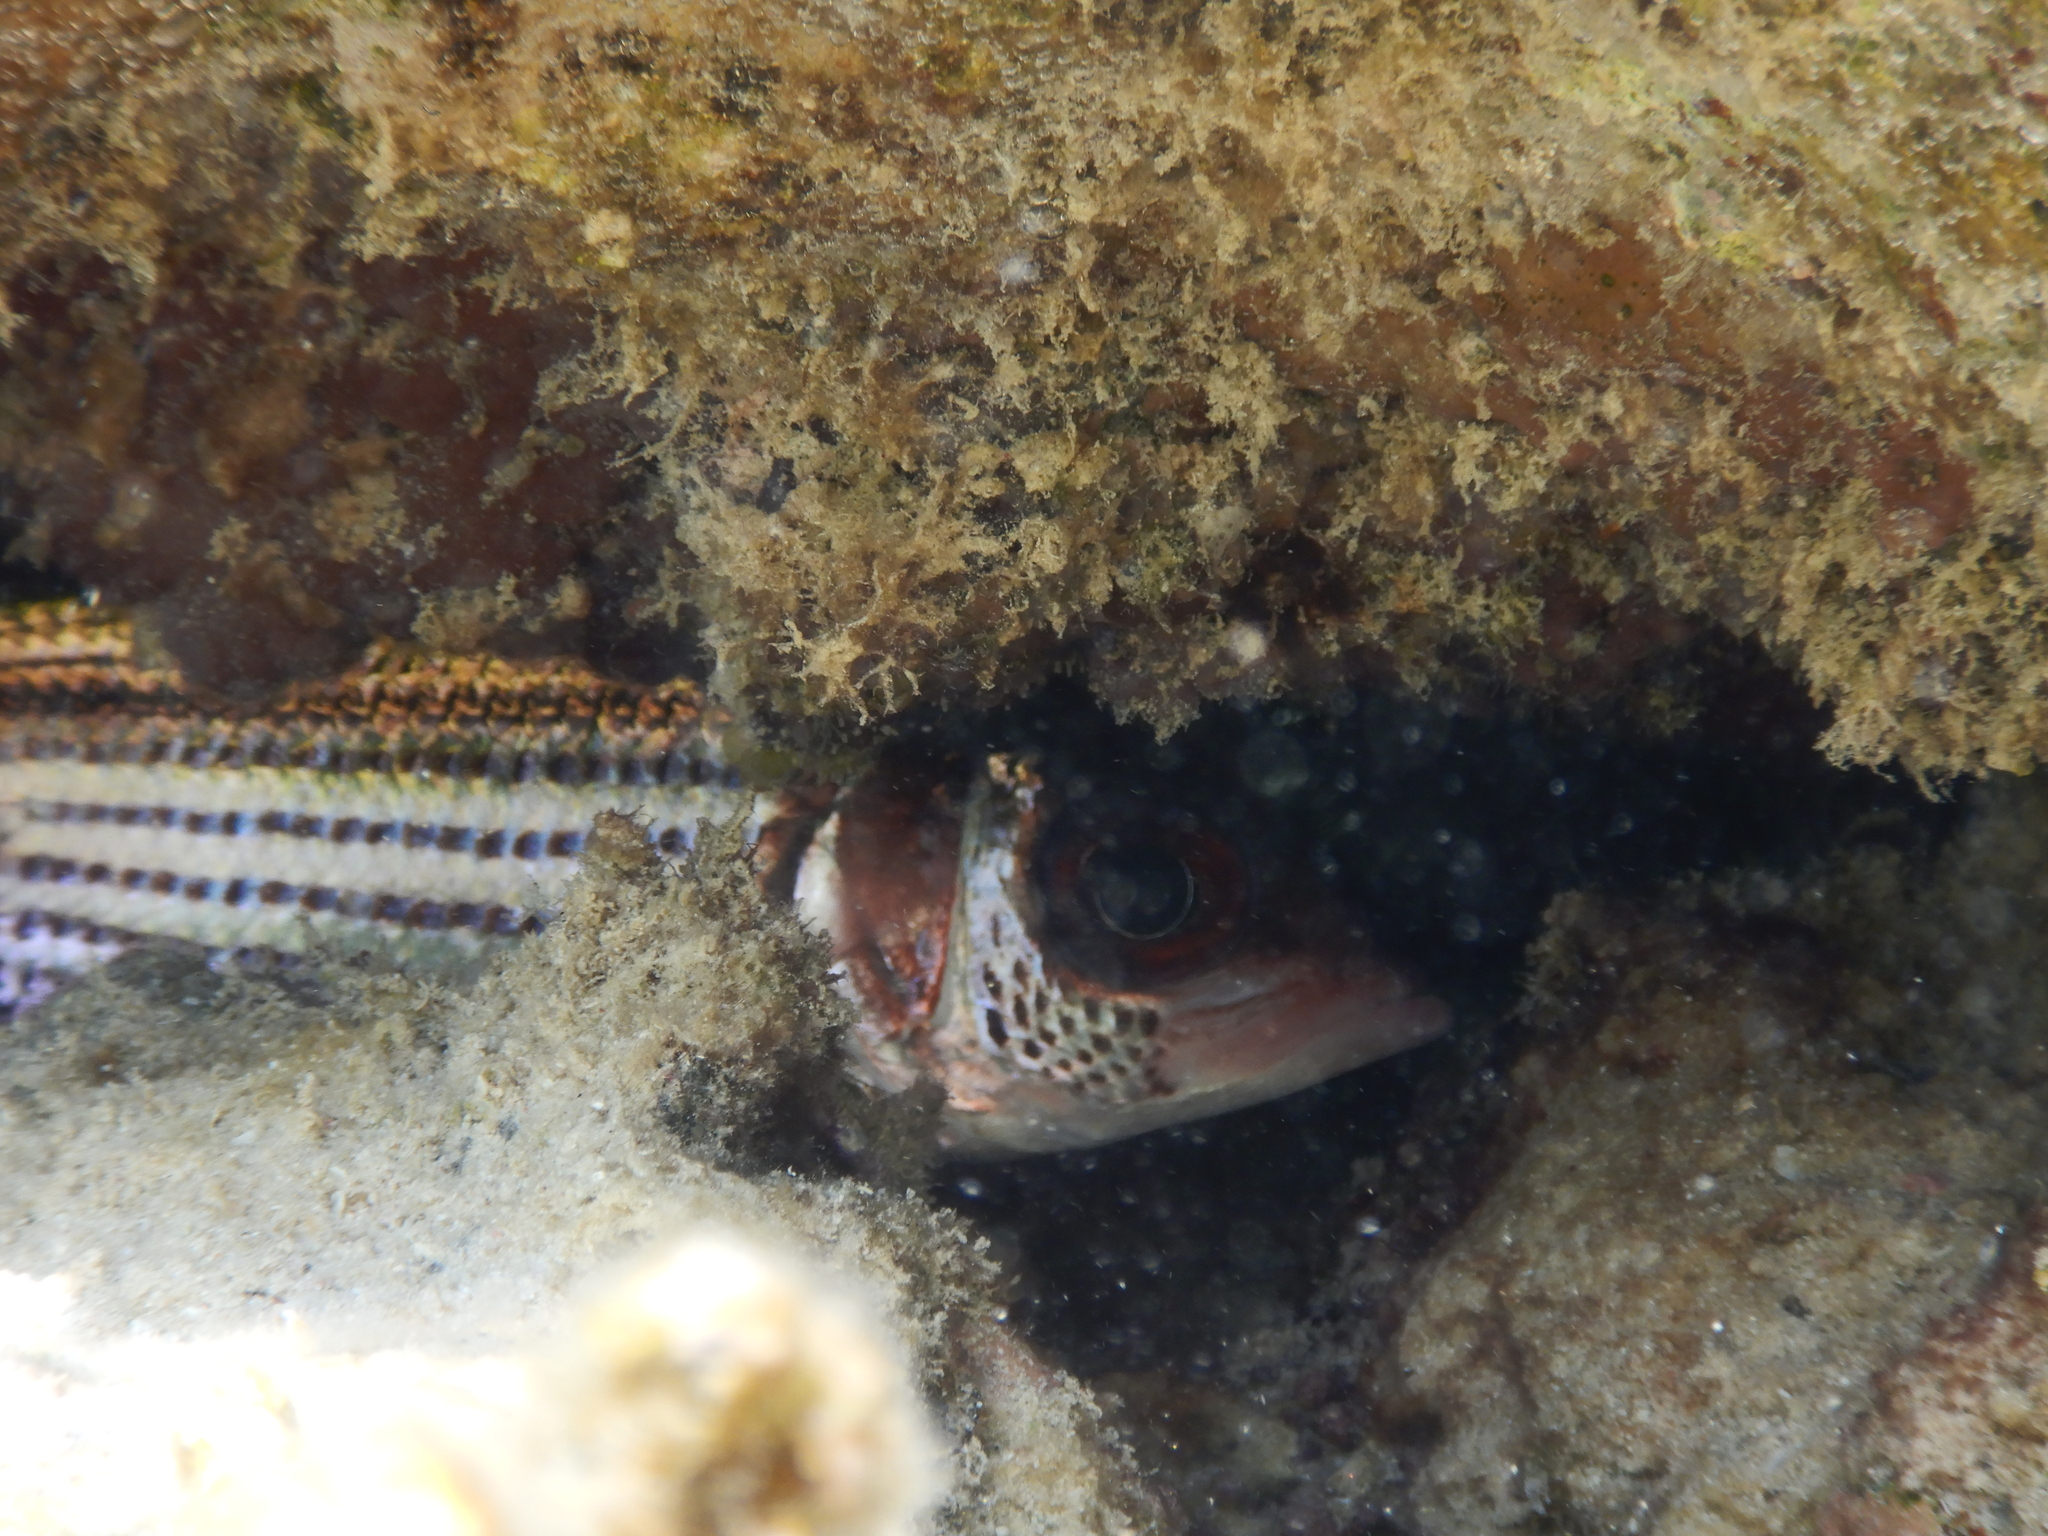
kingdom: Animalia
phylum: Chordata
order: Beryciformes
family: Holocentridae
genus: Neoniphon
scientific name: Neoniphon sammara
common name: Sammara squirrelfish
